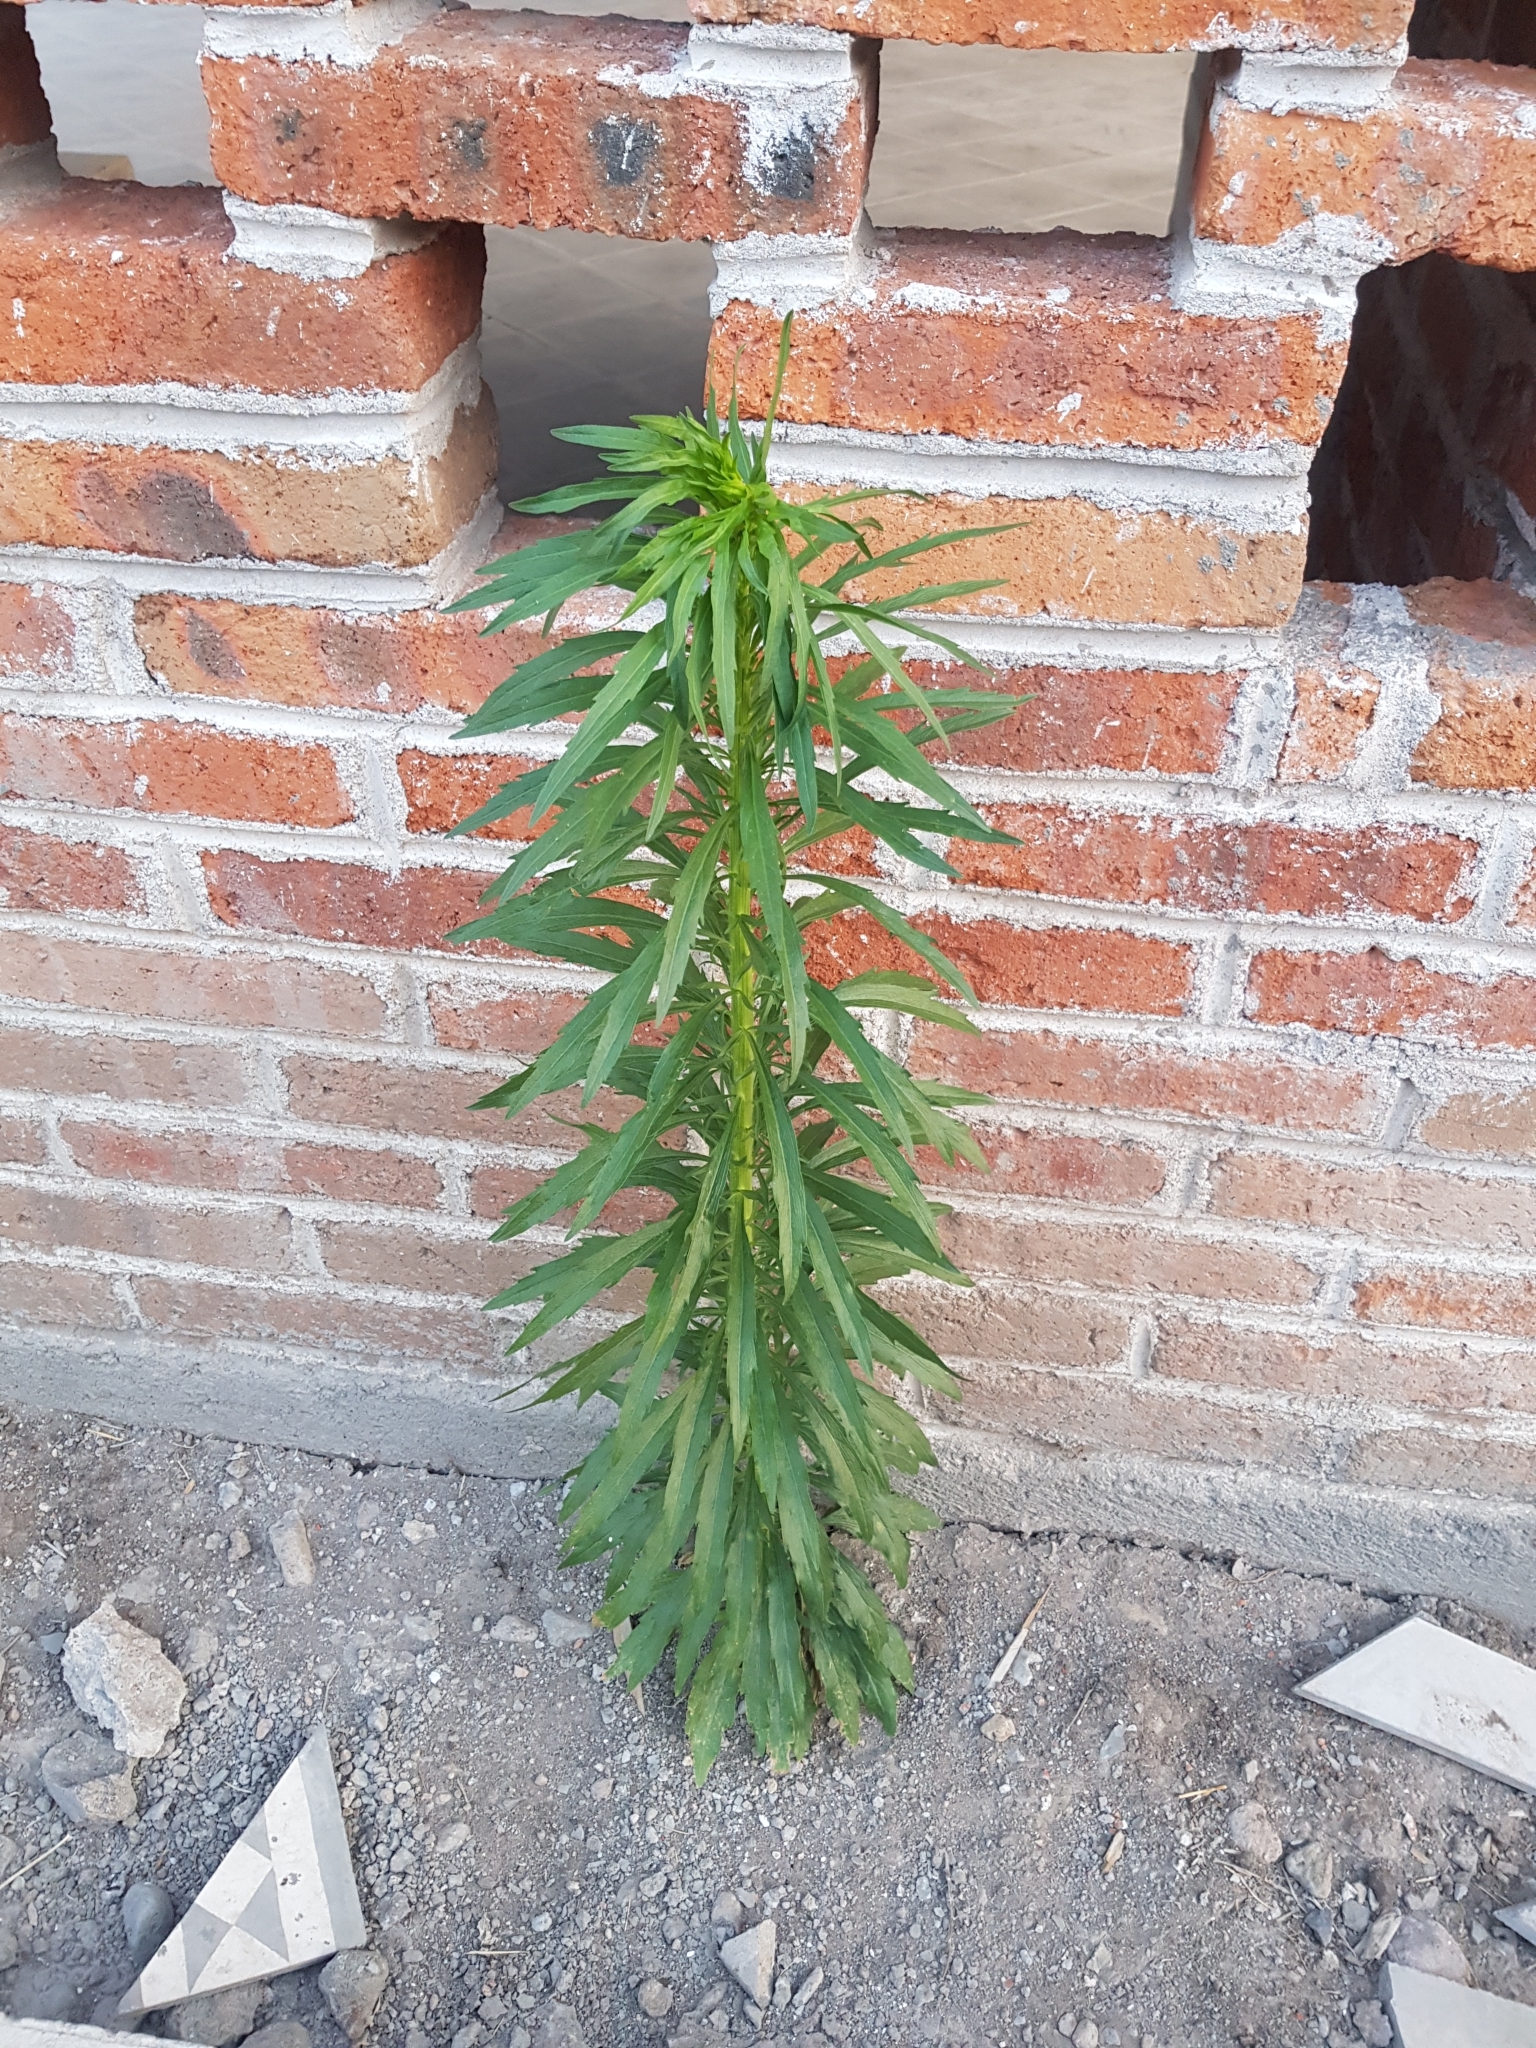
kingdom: Plantae
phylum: Tracheophyta
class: Magnoliopsida
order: Asterales
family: Asteraceae
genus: Erigeron
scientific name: Erigeron canadensis
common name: Canadian fleabane
